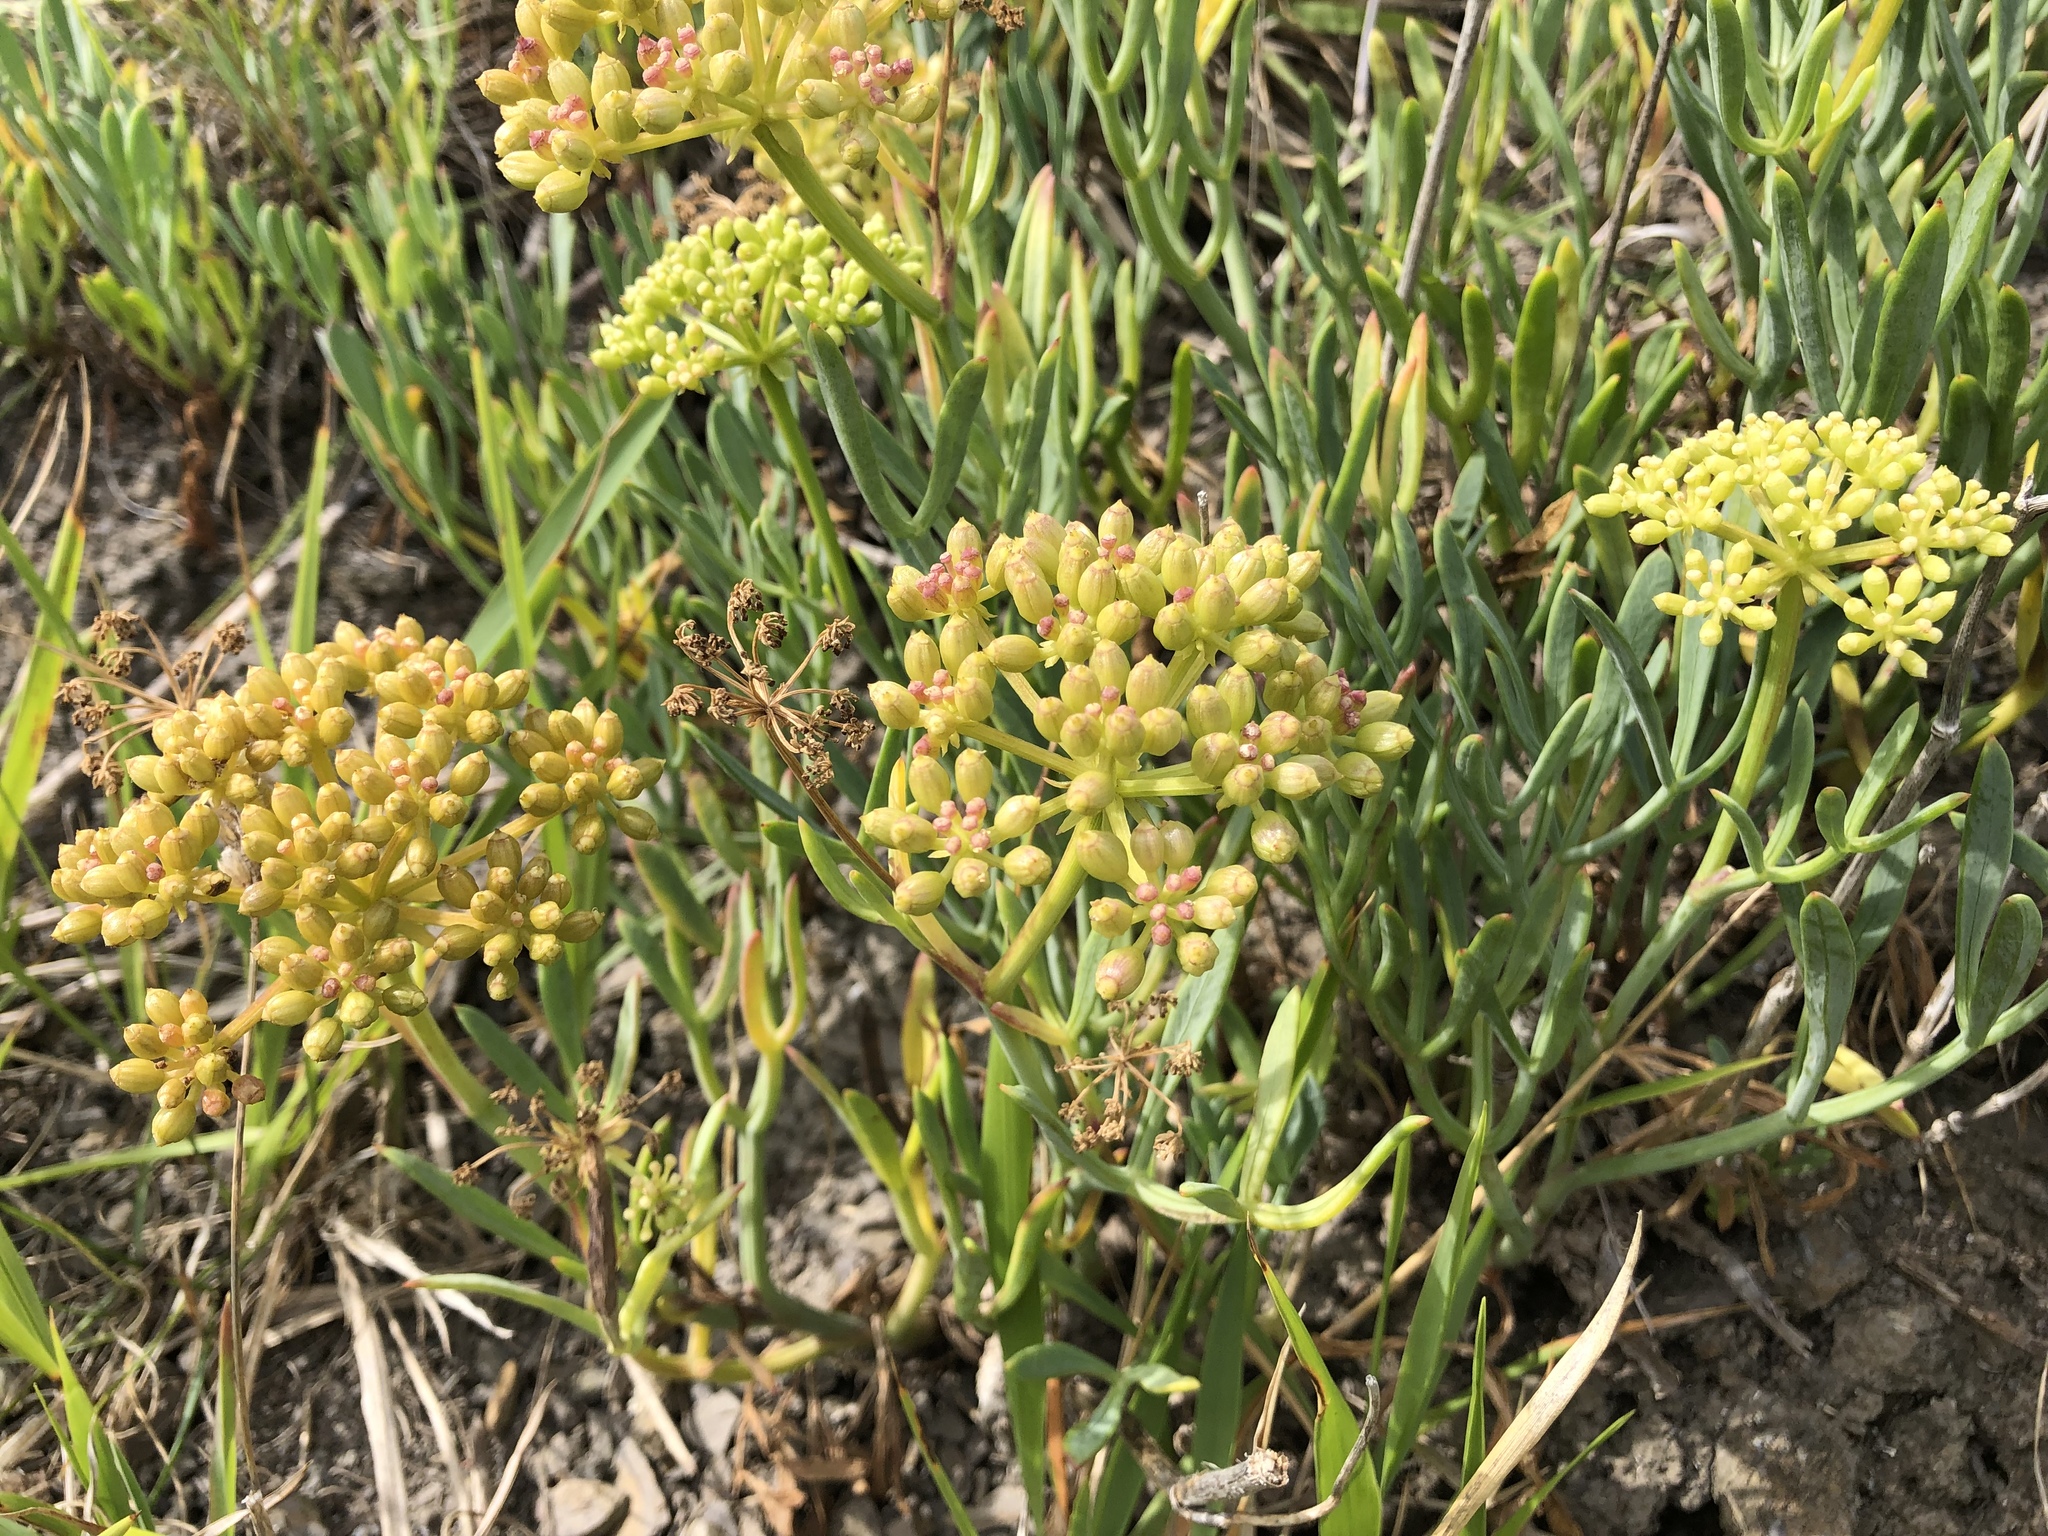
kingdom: Plantae
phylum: Tracheophyta
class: Magnoliopsida
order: Apiales
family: Apiaceae
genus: Crithmum
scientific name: Crithmum maritimum
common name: Rock samphire
